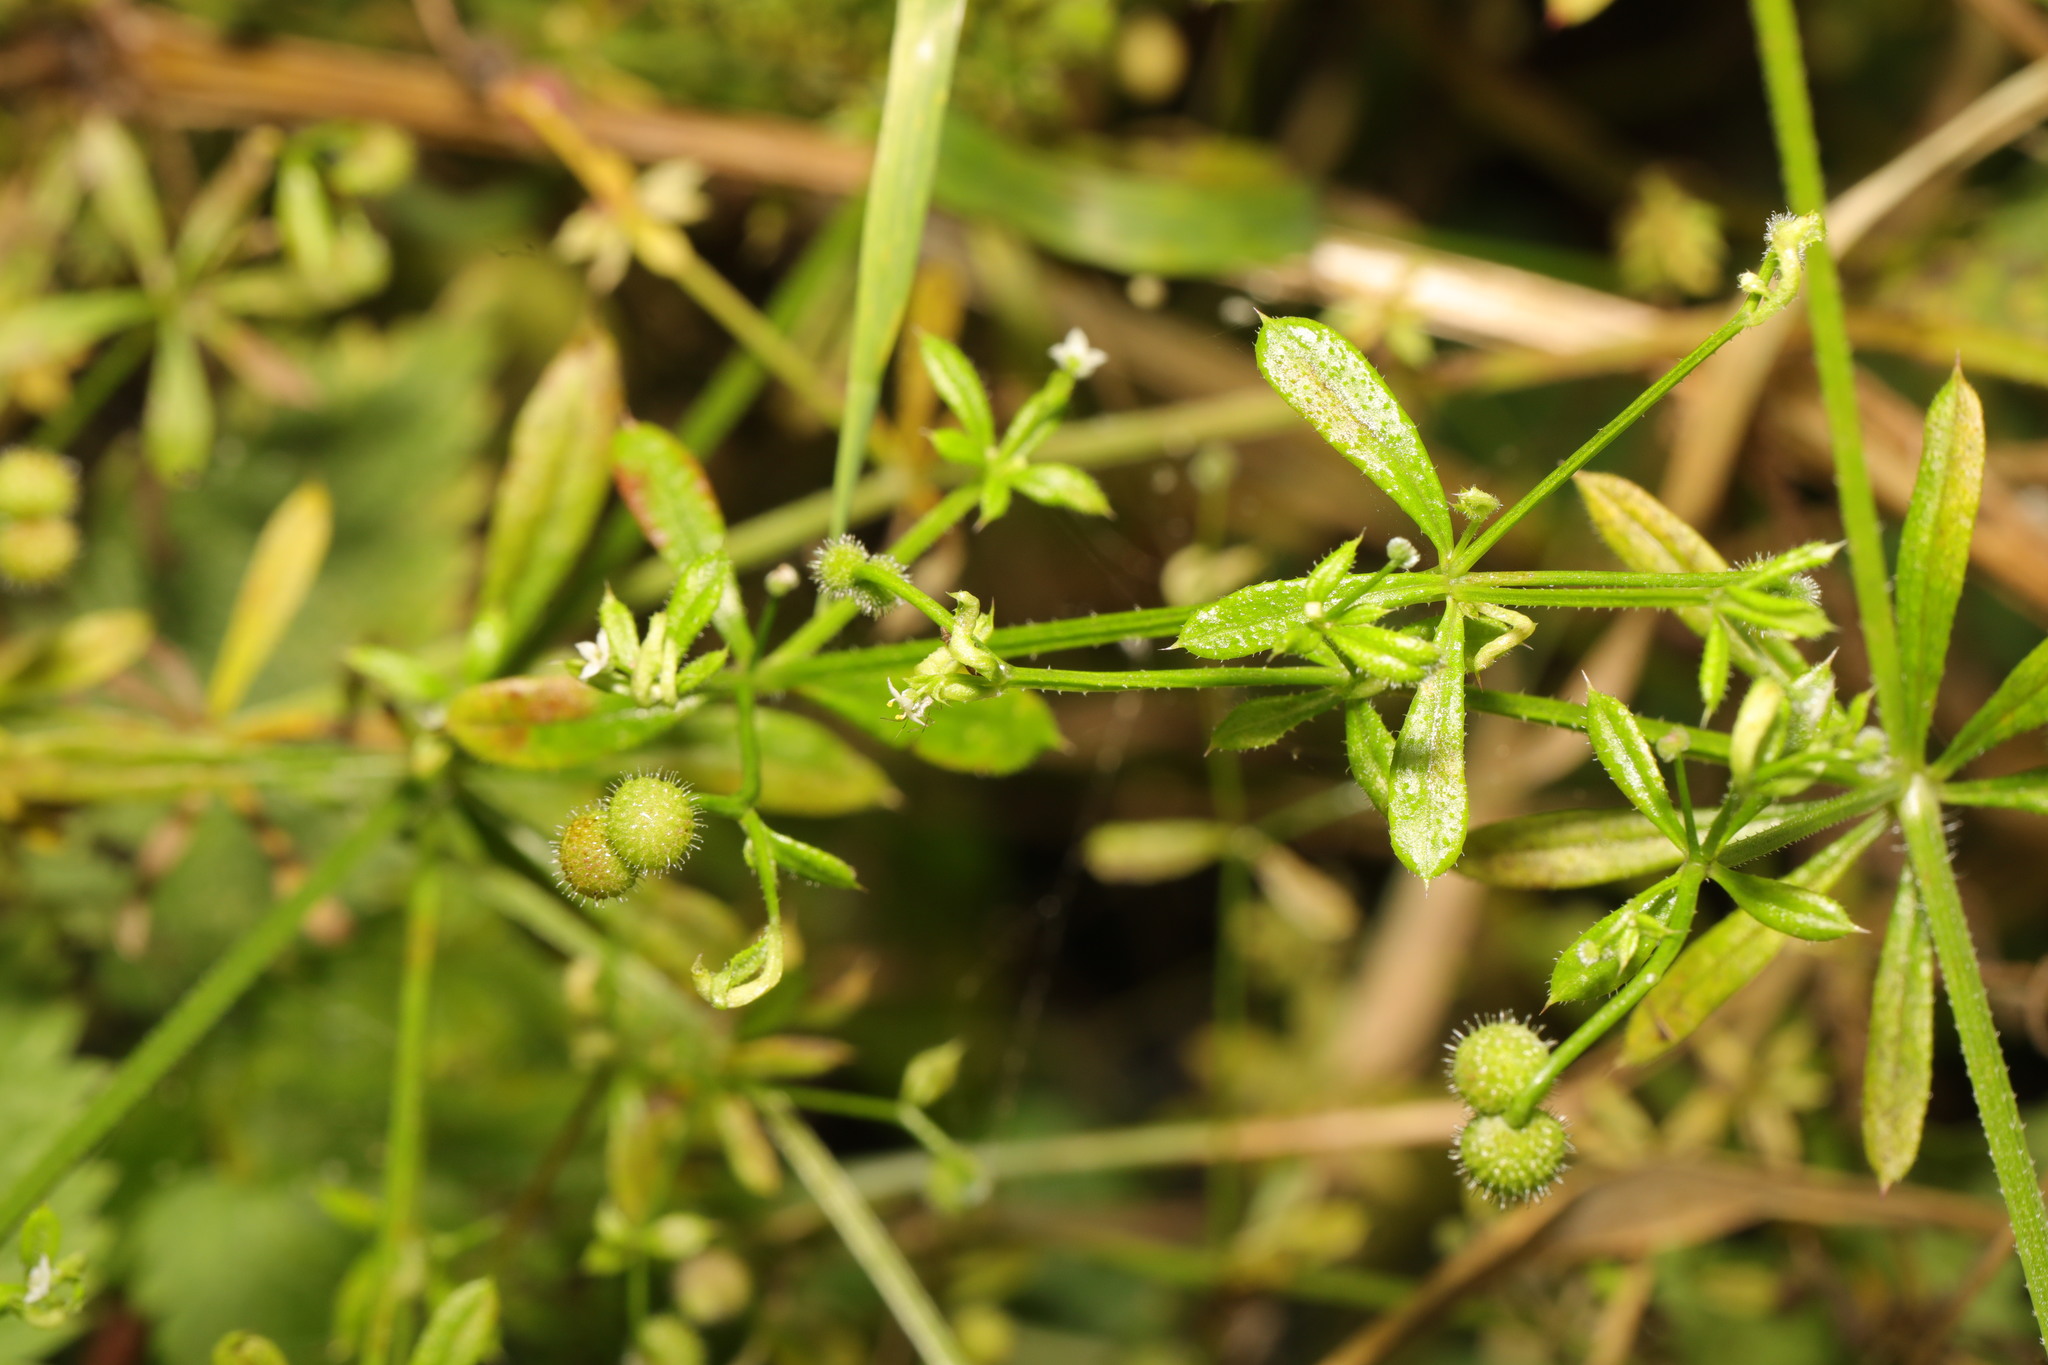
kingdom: Plantae
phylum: Tracheophyta
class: Magnoliopsida
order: Gentianales
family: Rubiaceae
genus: Galium
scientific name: Galium aparine
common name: Cleavers
